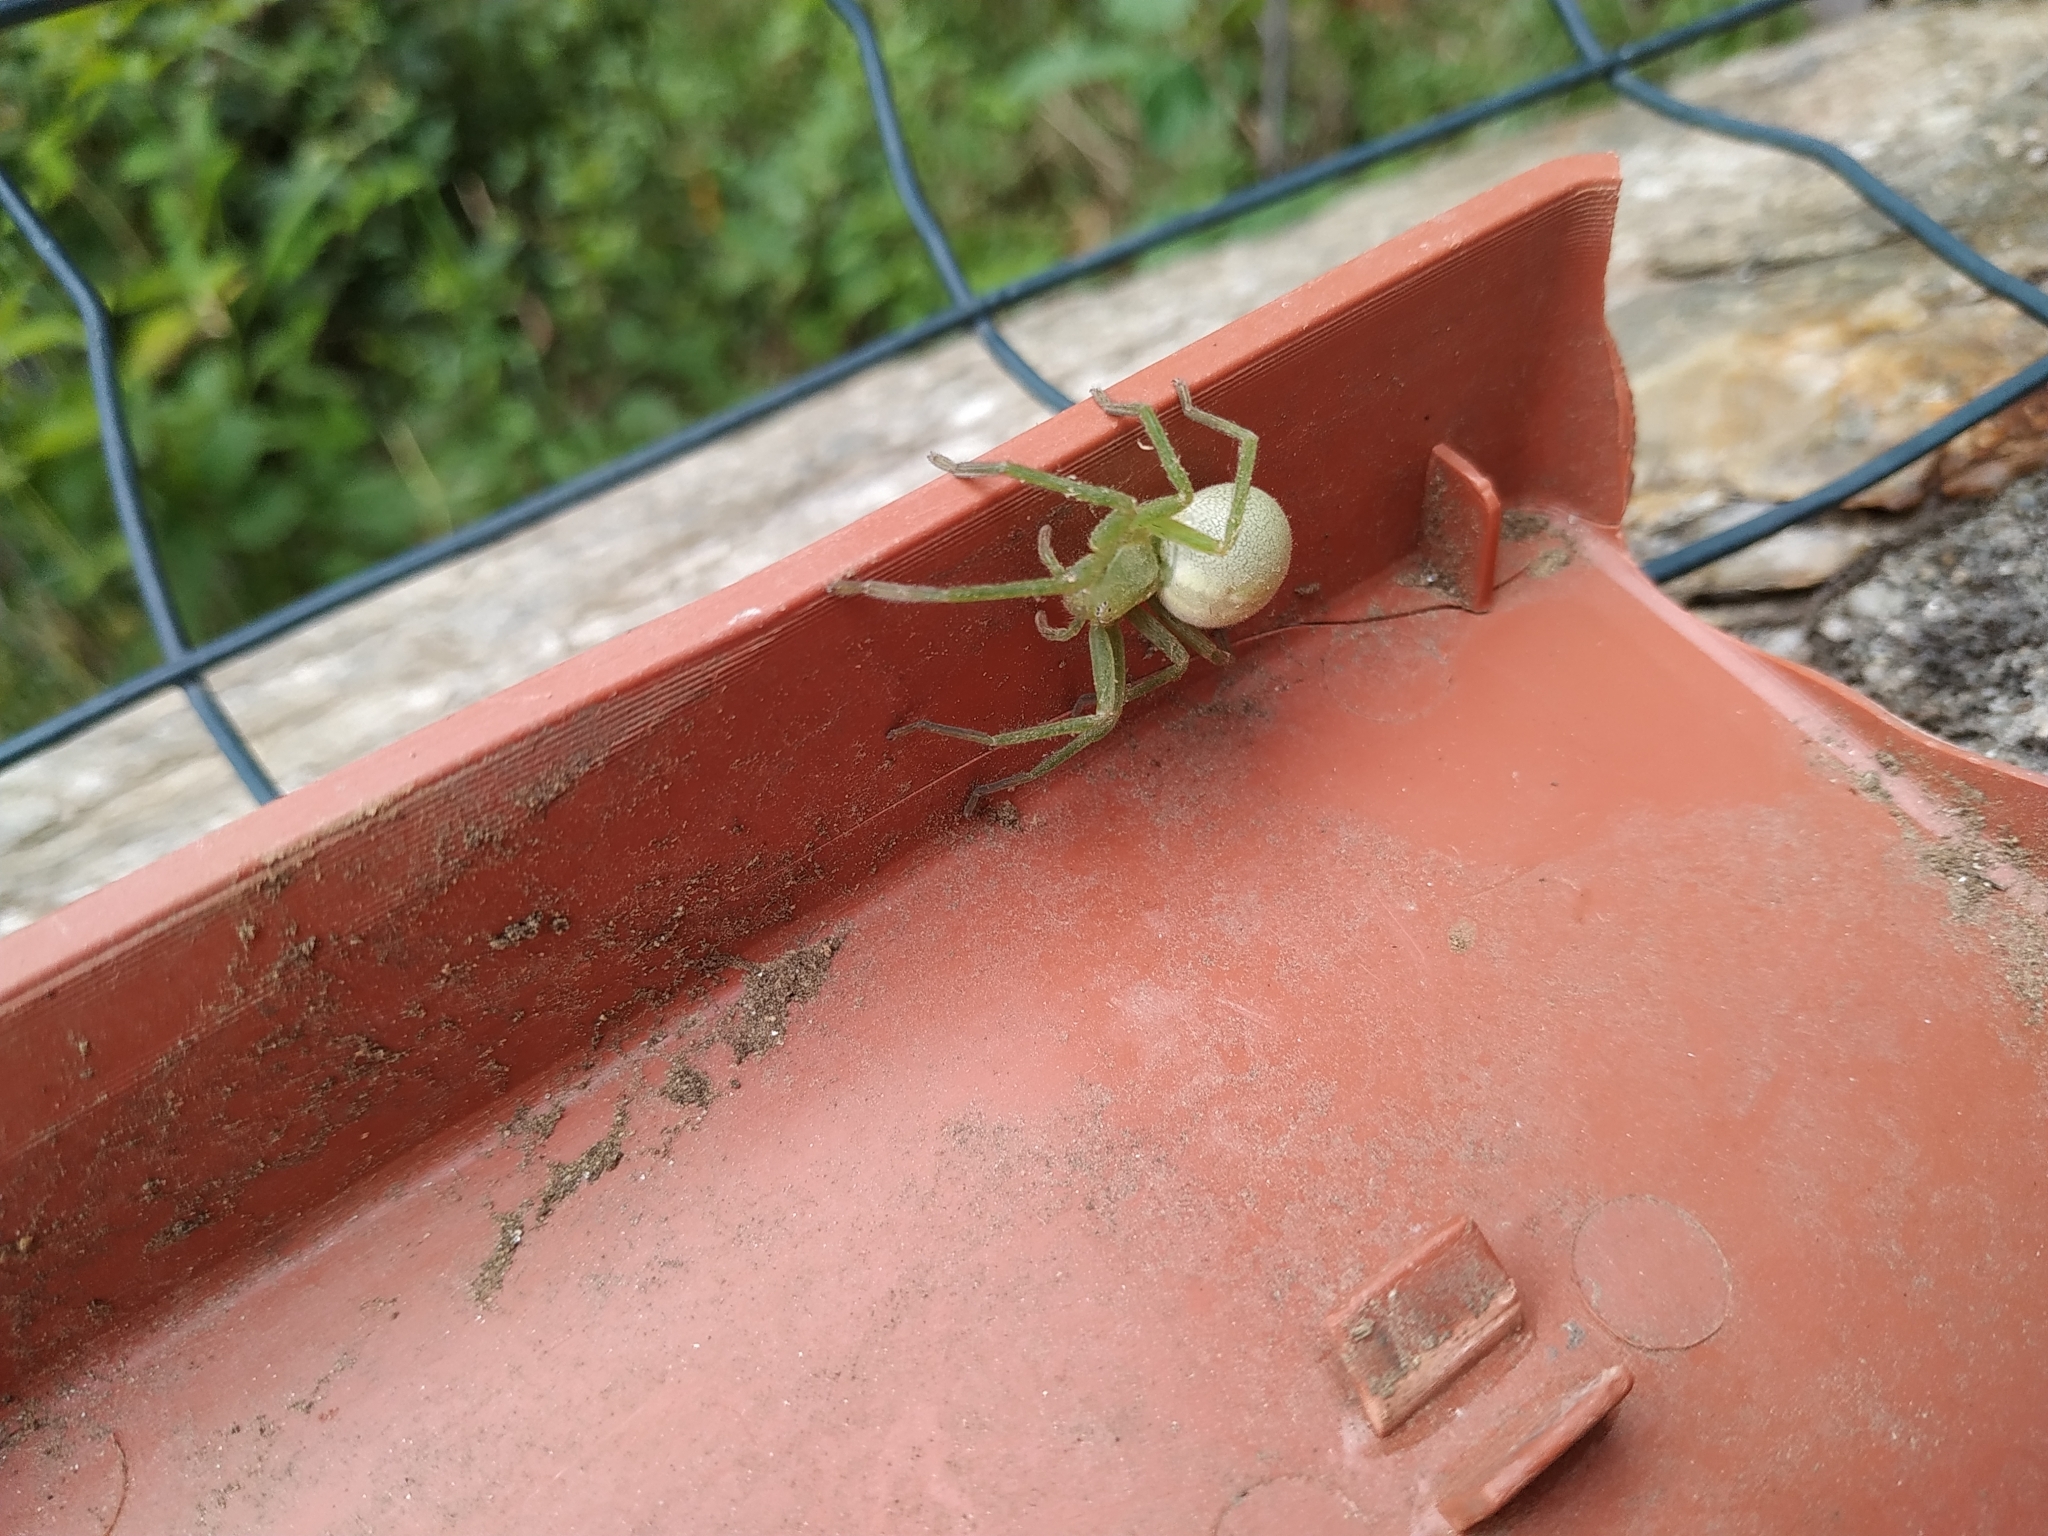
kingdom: Animalia
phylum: Arthropoda
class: Arachnida
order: Araneae
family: Sparassidae
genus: Micrommata
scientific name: Micrommata virescens
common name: Green spider
